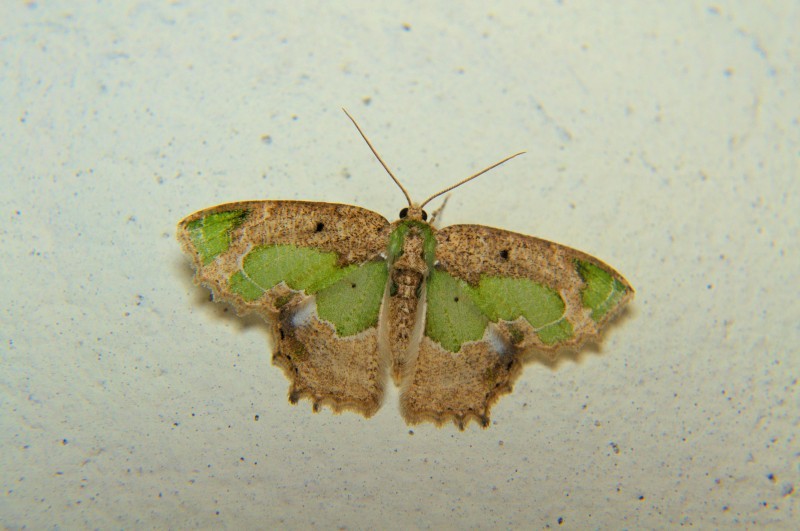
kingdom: Animalia
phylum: Arthropoda
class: Insecta
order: Lepidoptera
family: Geometridae
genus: Eucyclodes
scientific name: Eucyclodes discipennata
